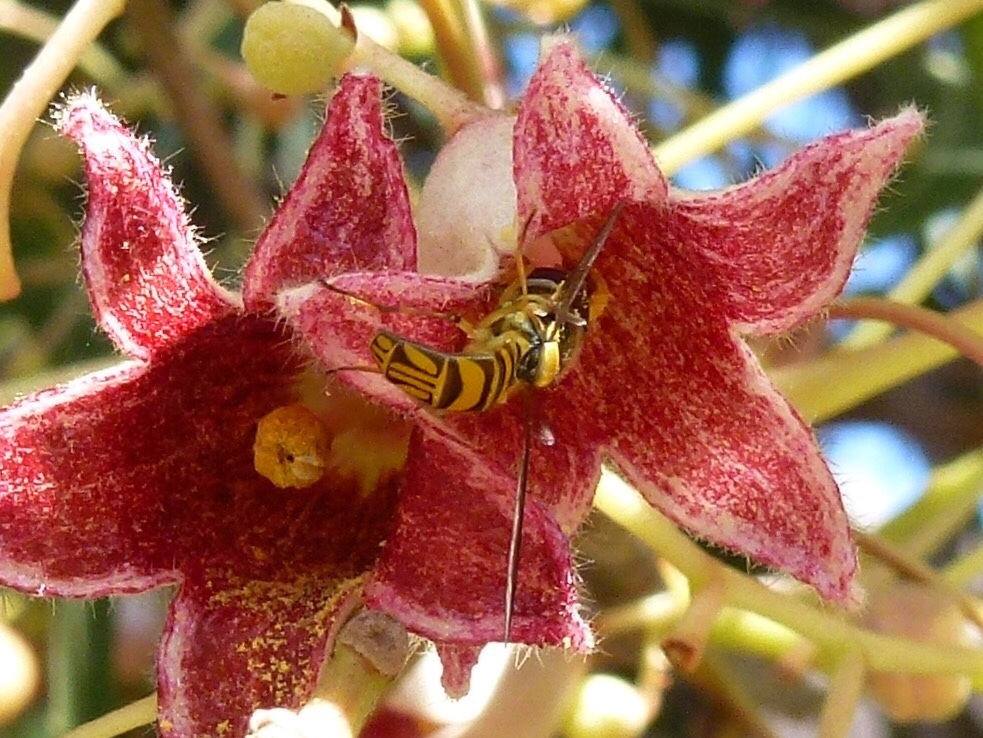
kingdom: Animalia
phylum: Arthropoda
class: Insecta
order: Diptera
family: Syrphidae
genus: Allograpta
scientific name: Allograpta obliqua
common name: Common oblique syrphid
